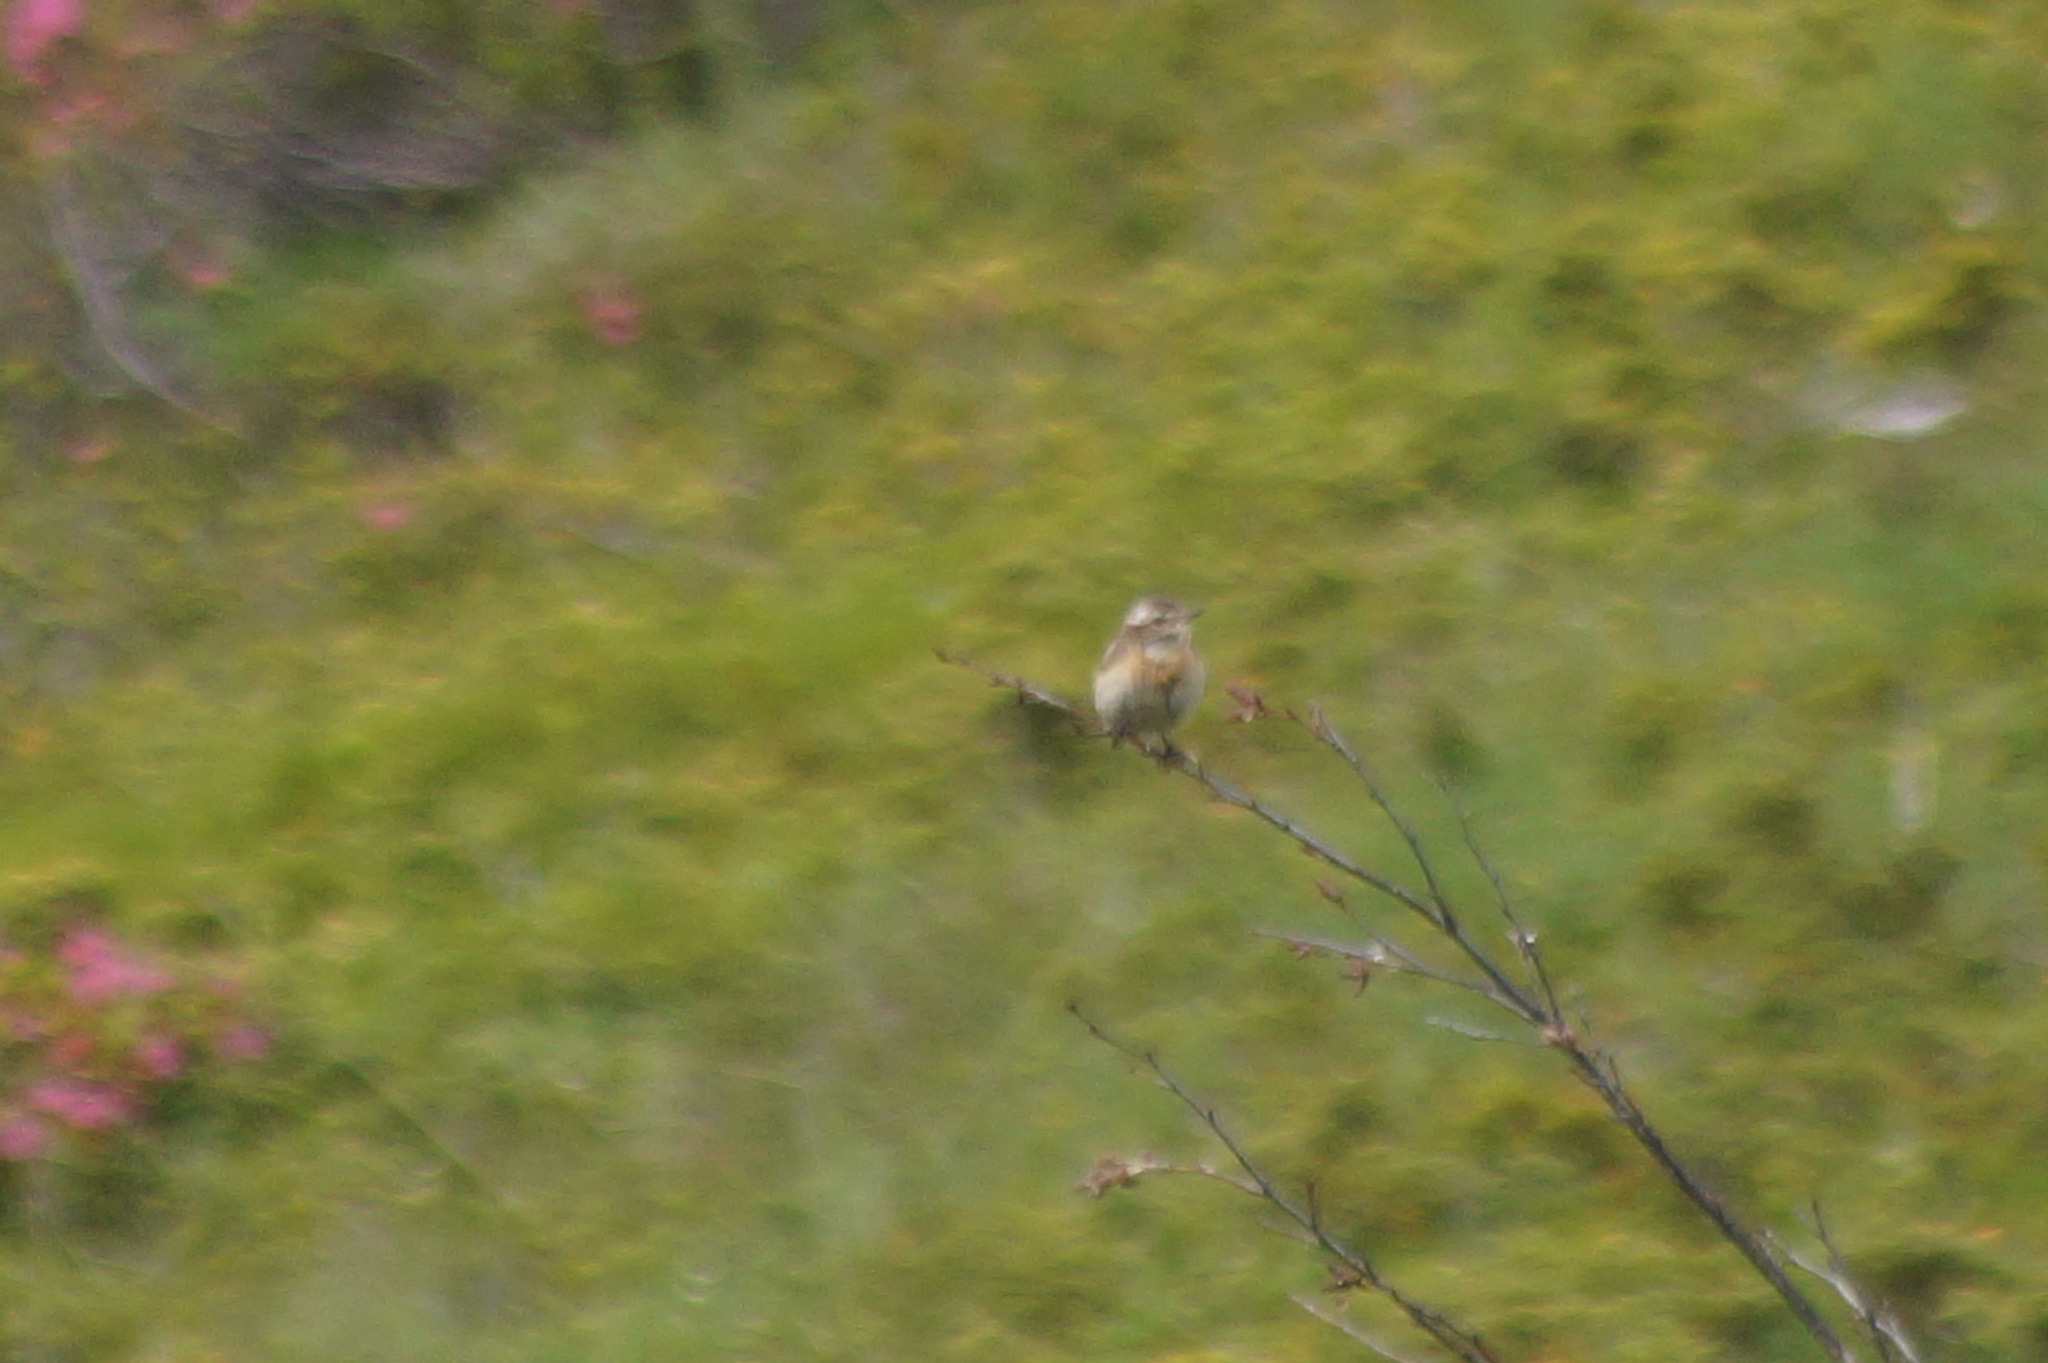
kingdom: Animalia
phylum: Chordata
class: Aves
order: Passeriformes
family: Muscicapidae
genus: Saxicola
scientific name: Saxicola rubetra
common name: Whinchat
